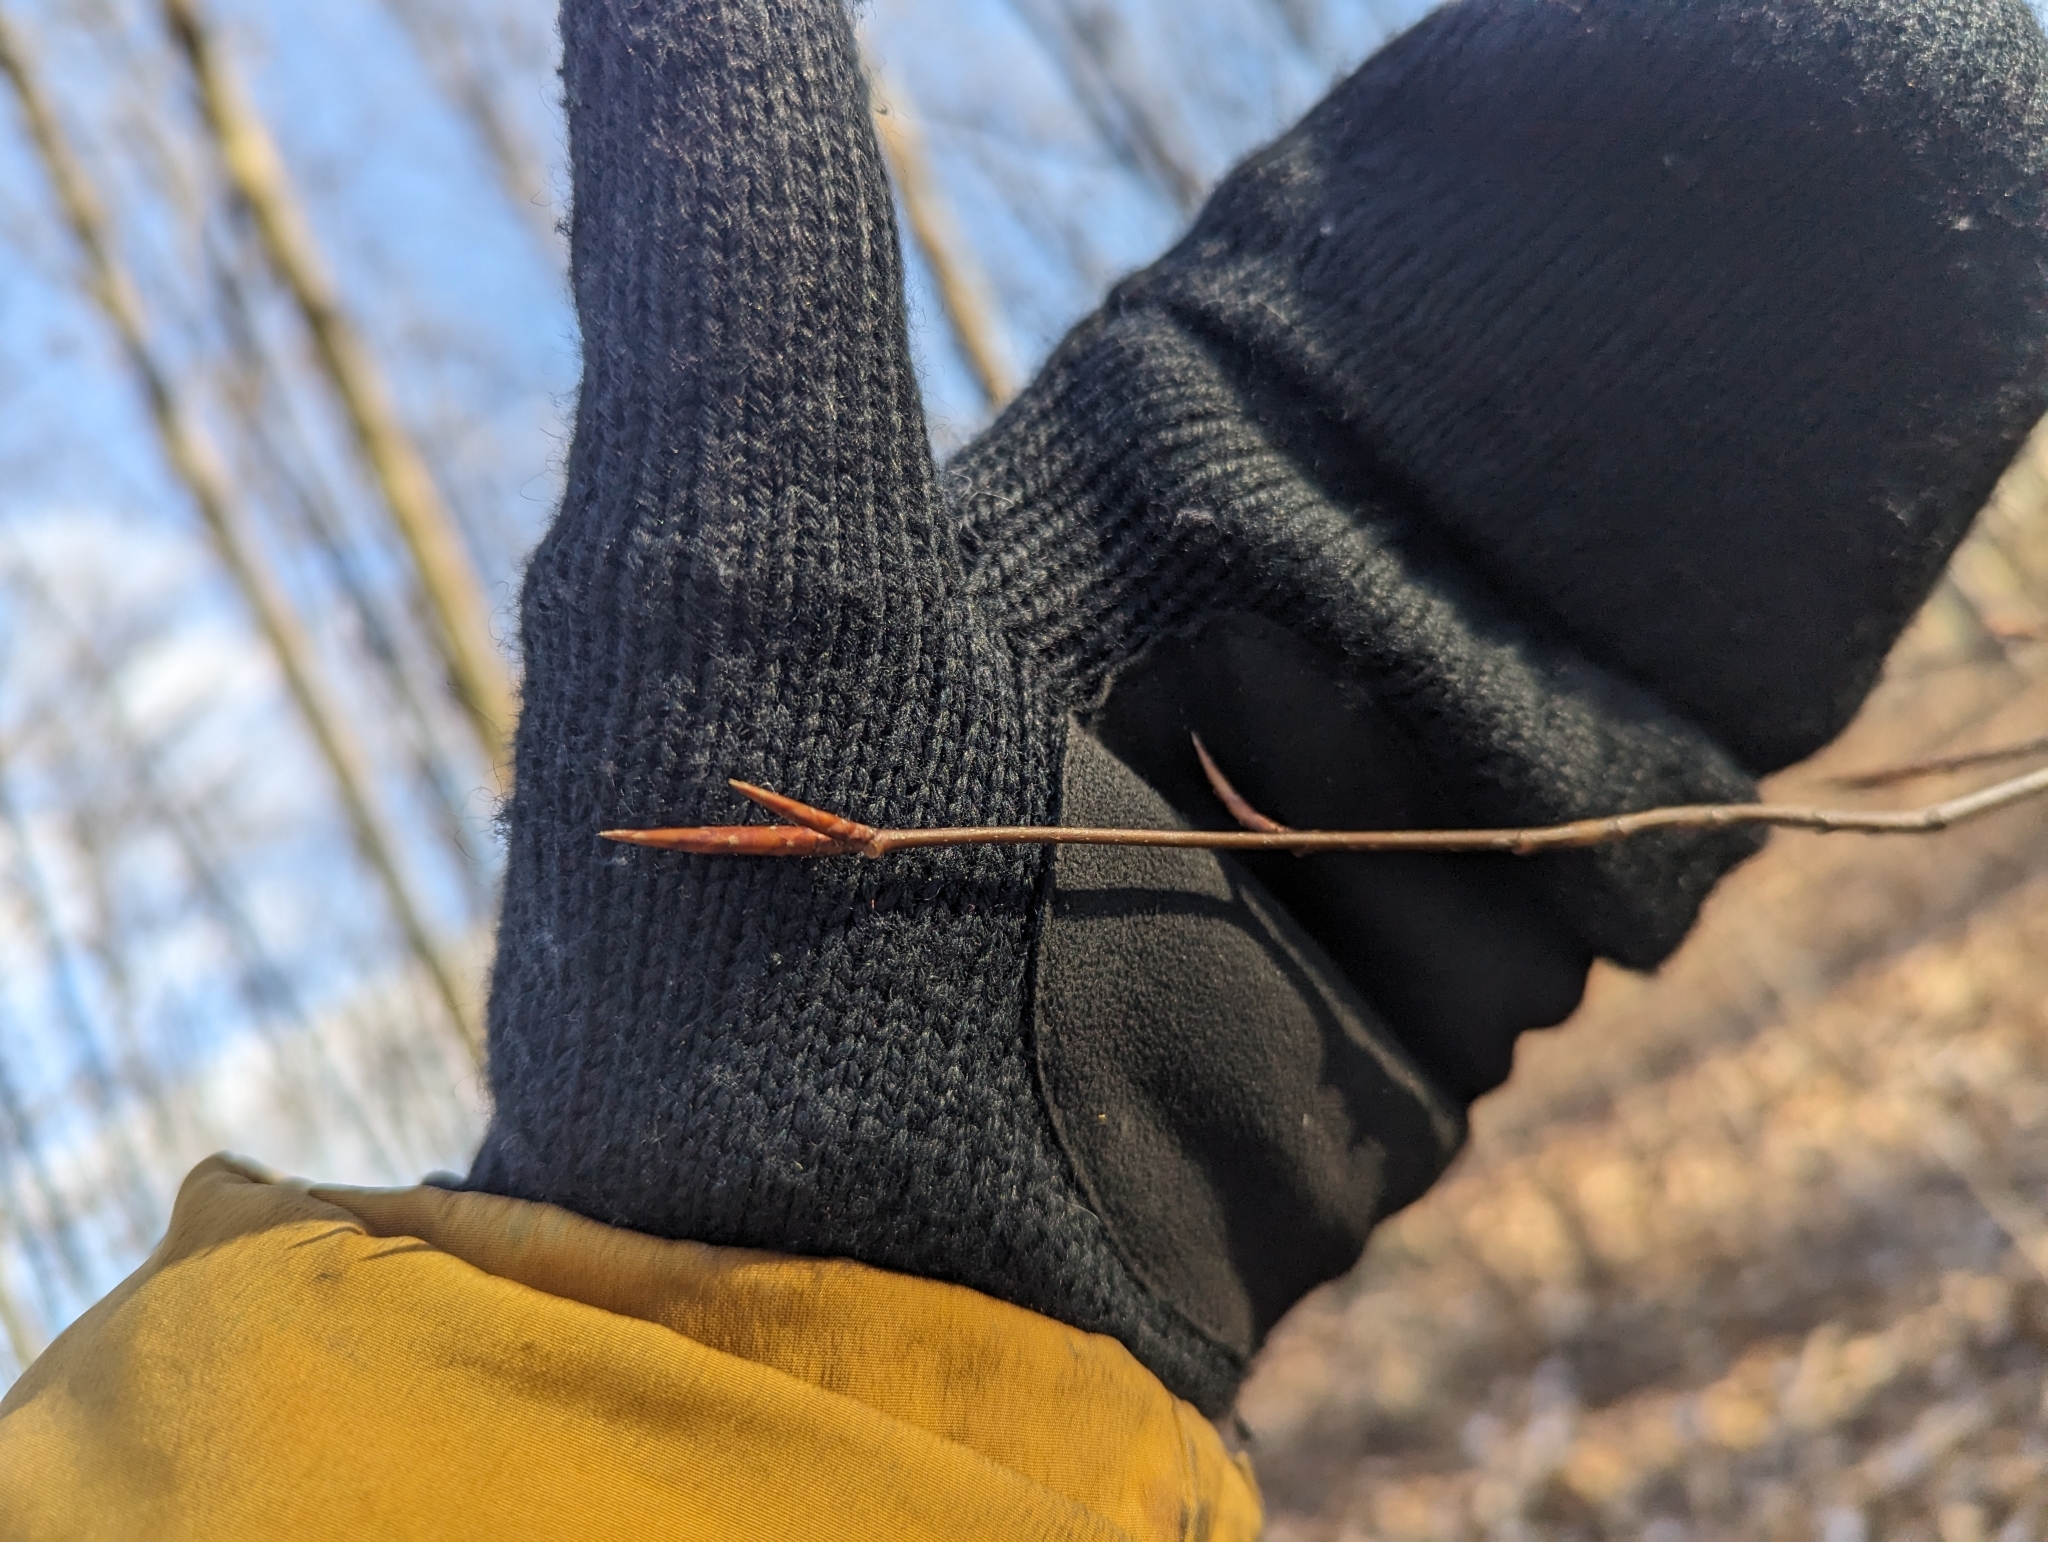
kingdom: Plantae
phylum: Tracheophyta
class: Magnoliopsida
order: Fagales
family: Fagaceae
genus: Fagus
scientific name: Fagus grandifolia
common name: American beech
